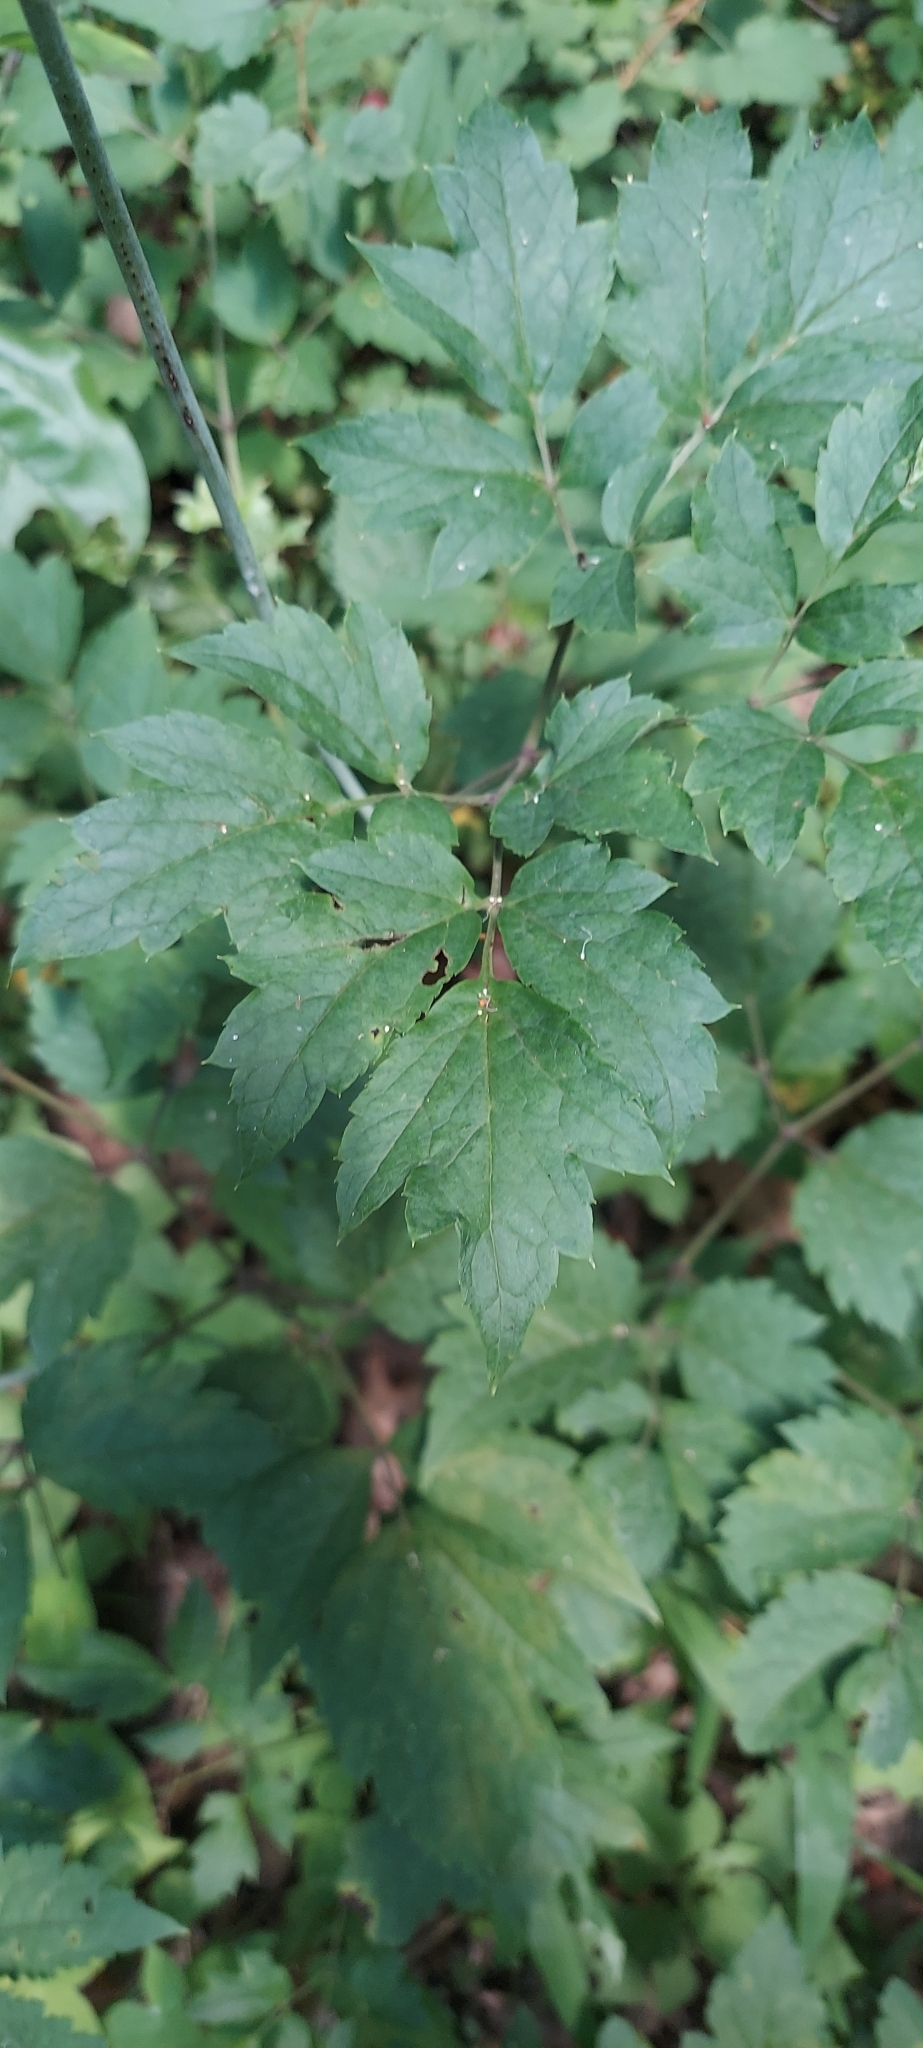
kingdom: Plantae
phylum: Tracheophyta
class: Magnoliopsida
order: Ranunculales
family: Ranunculaceae
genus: Actaea
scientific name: Actaea racemosa
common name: Black cohosh
